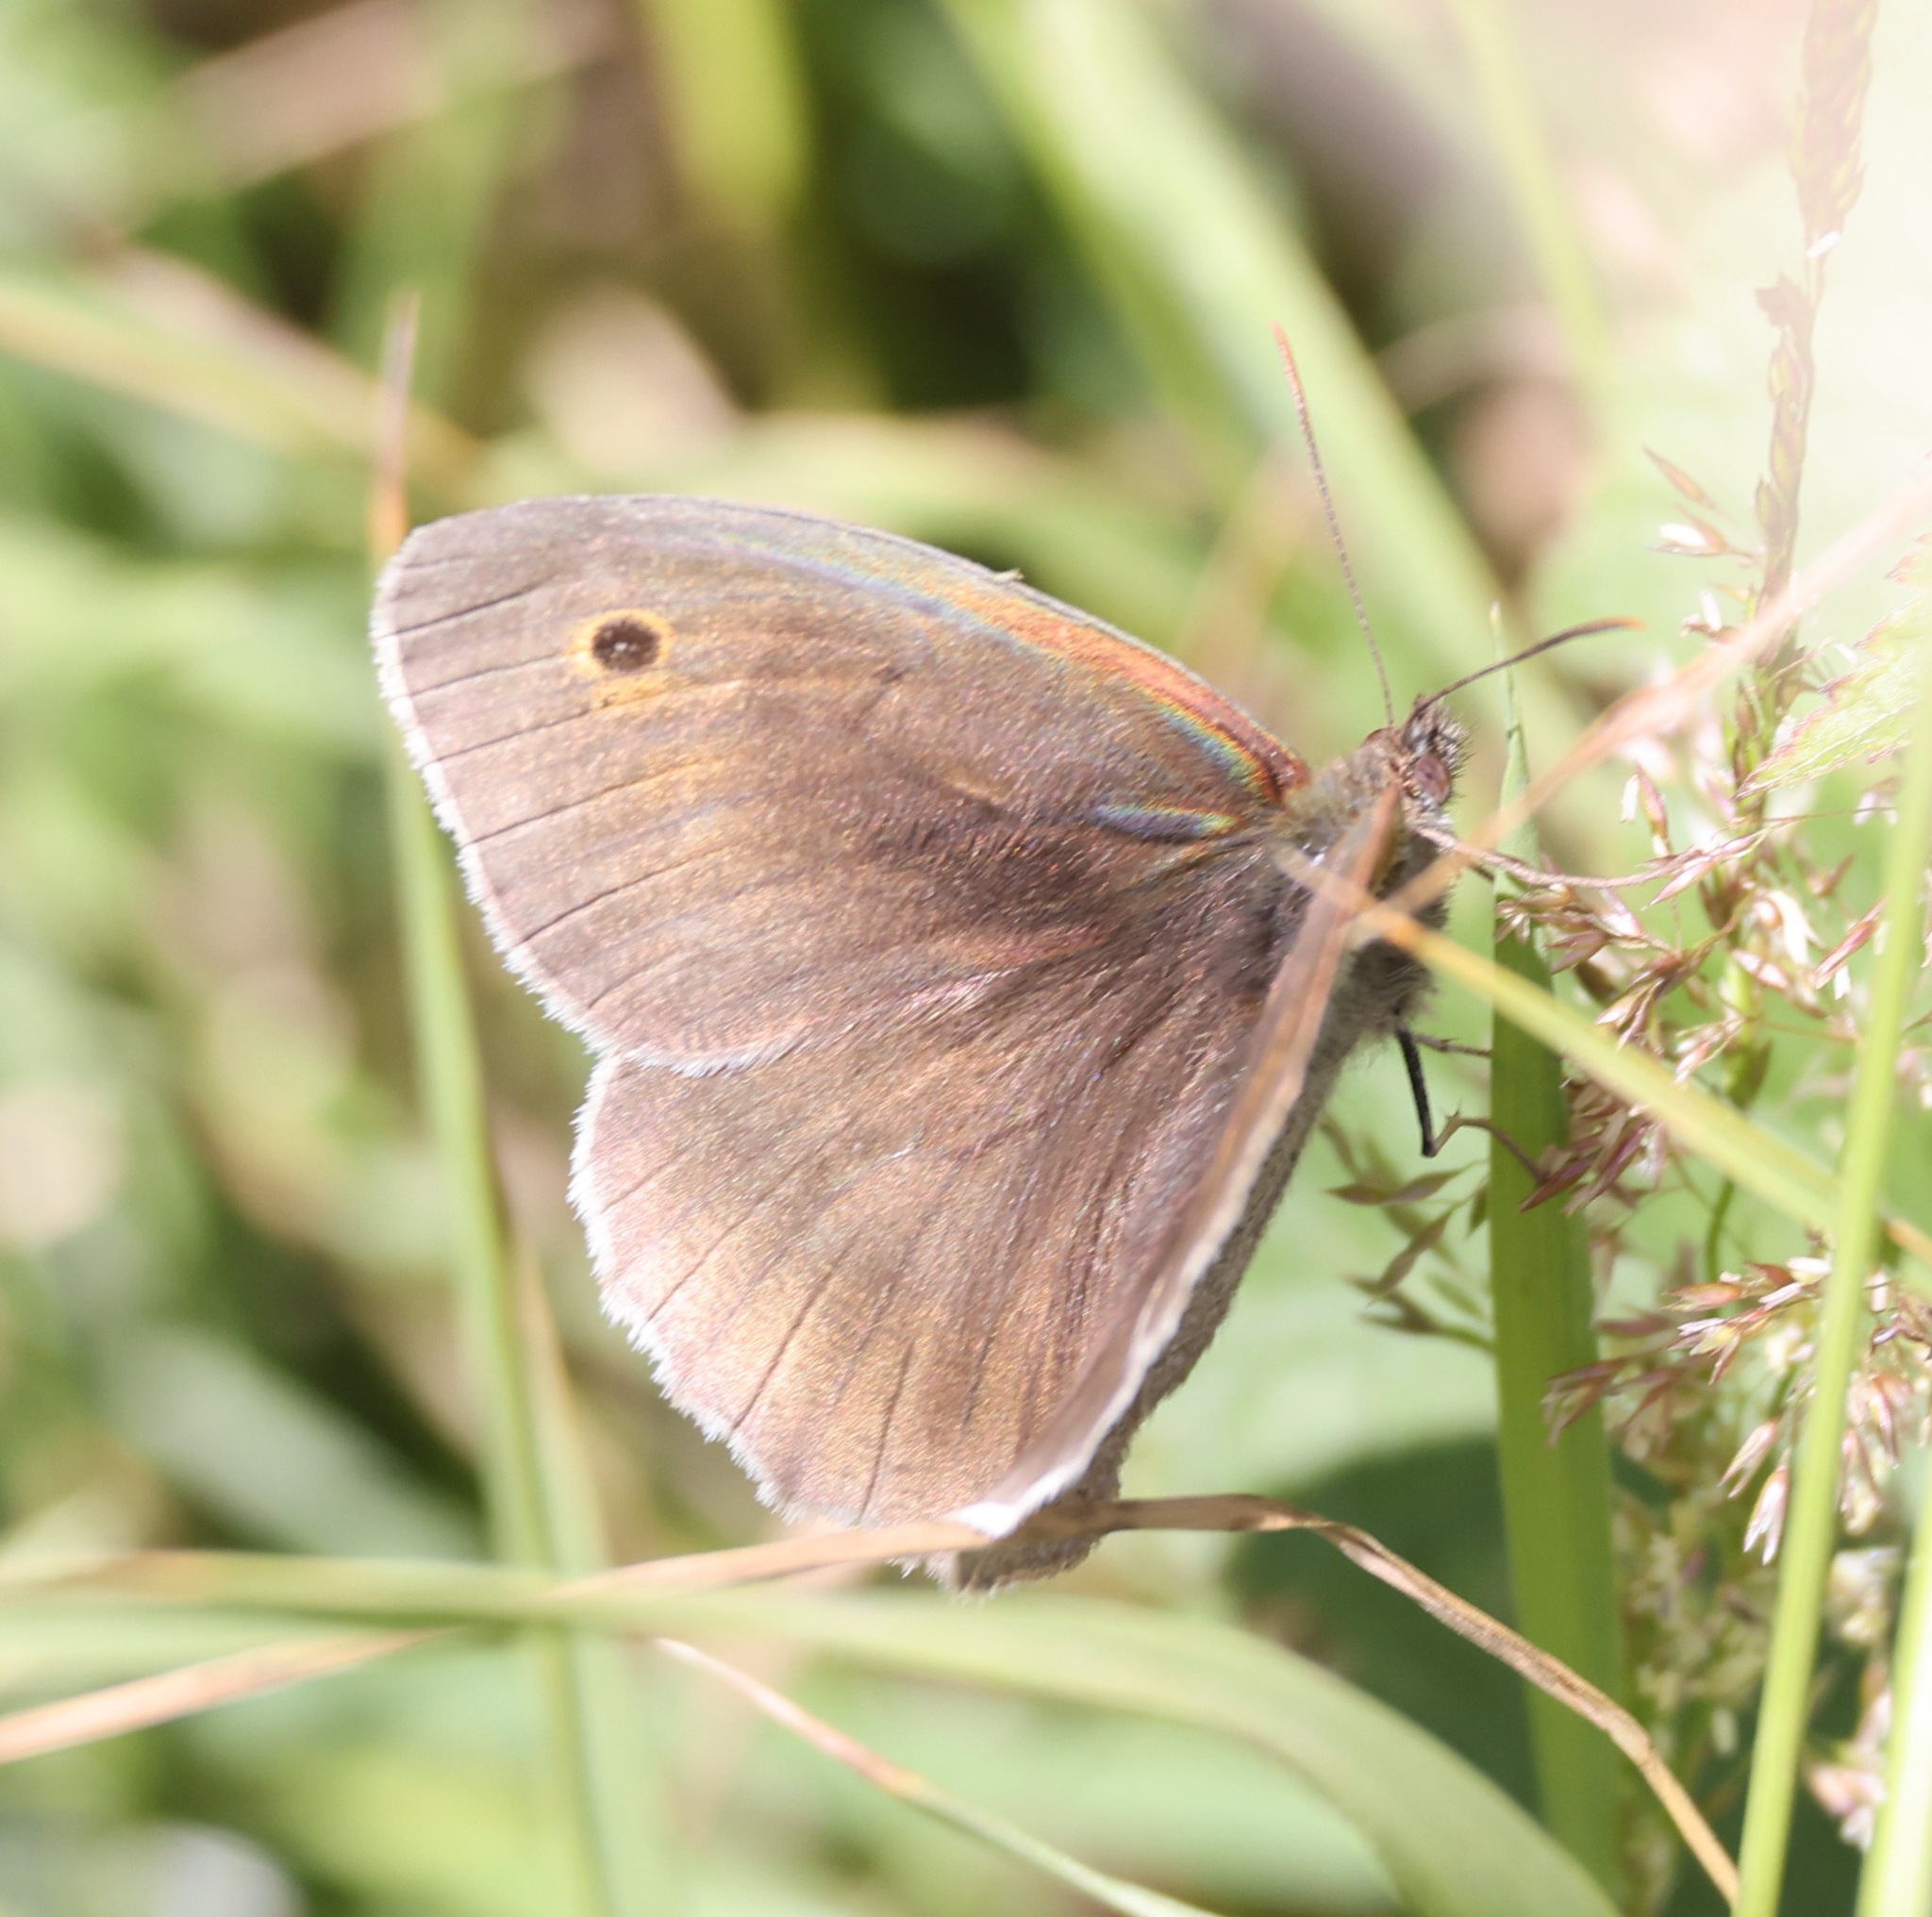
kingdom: Animalia
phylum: Arthropoda
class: Insecta
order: Lepidoptera
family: Nymphalidae
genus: Maniola
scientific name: Maniola jurtina
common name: Meadow brown
